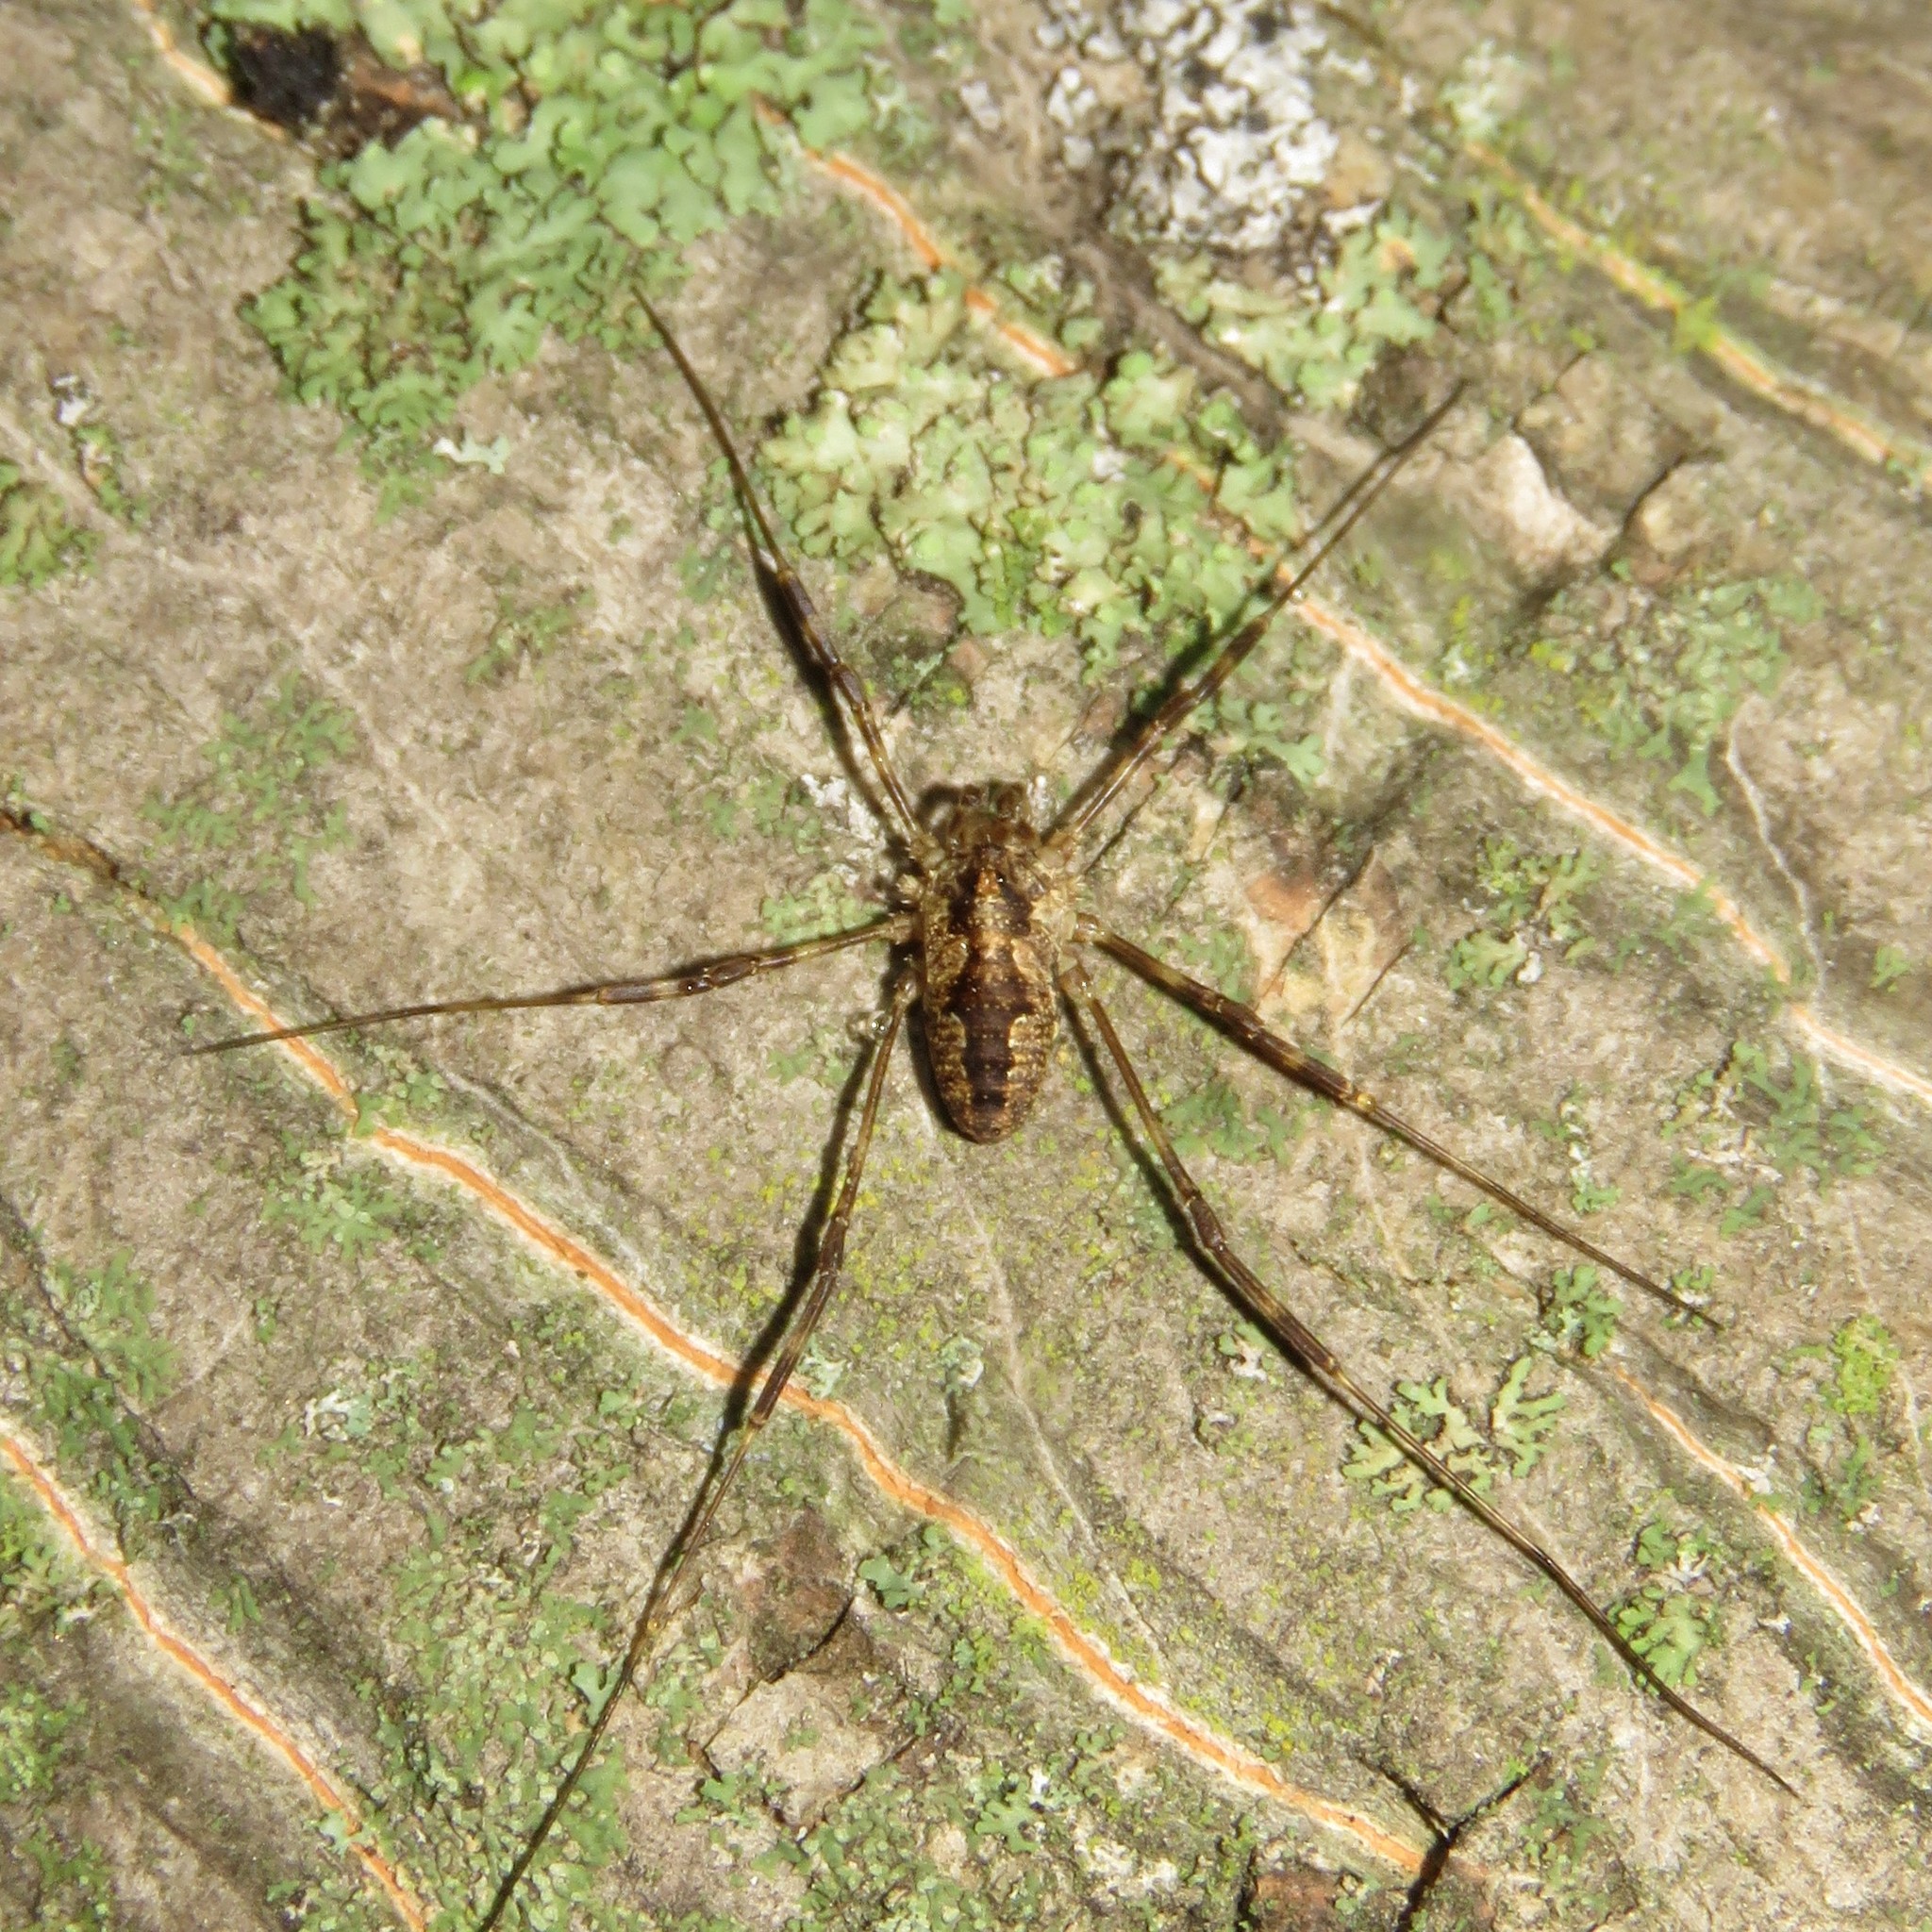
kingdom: Animalia
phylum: Arthropoda
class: Arachnida
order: Opiliones
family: Phalangiidae
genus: Odiellus
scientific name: Odiellus pictus
